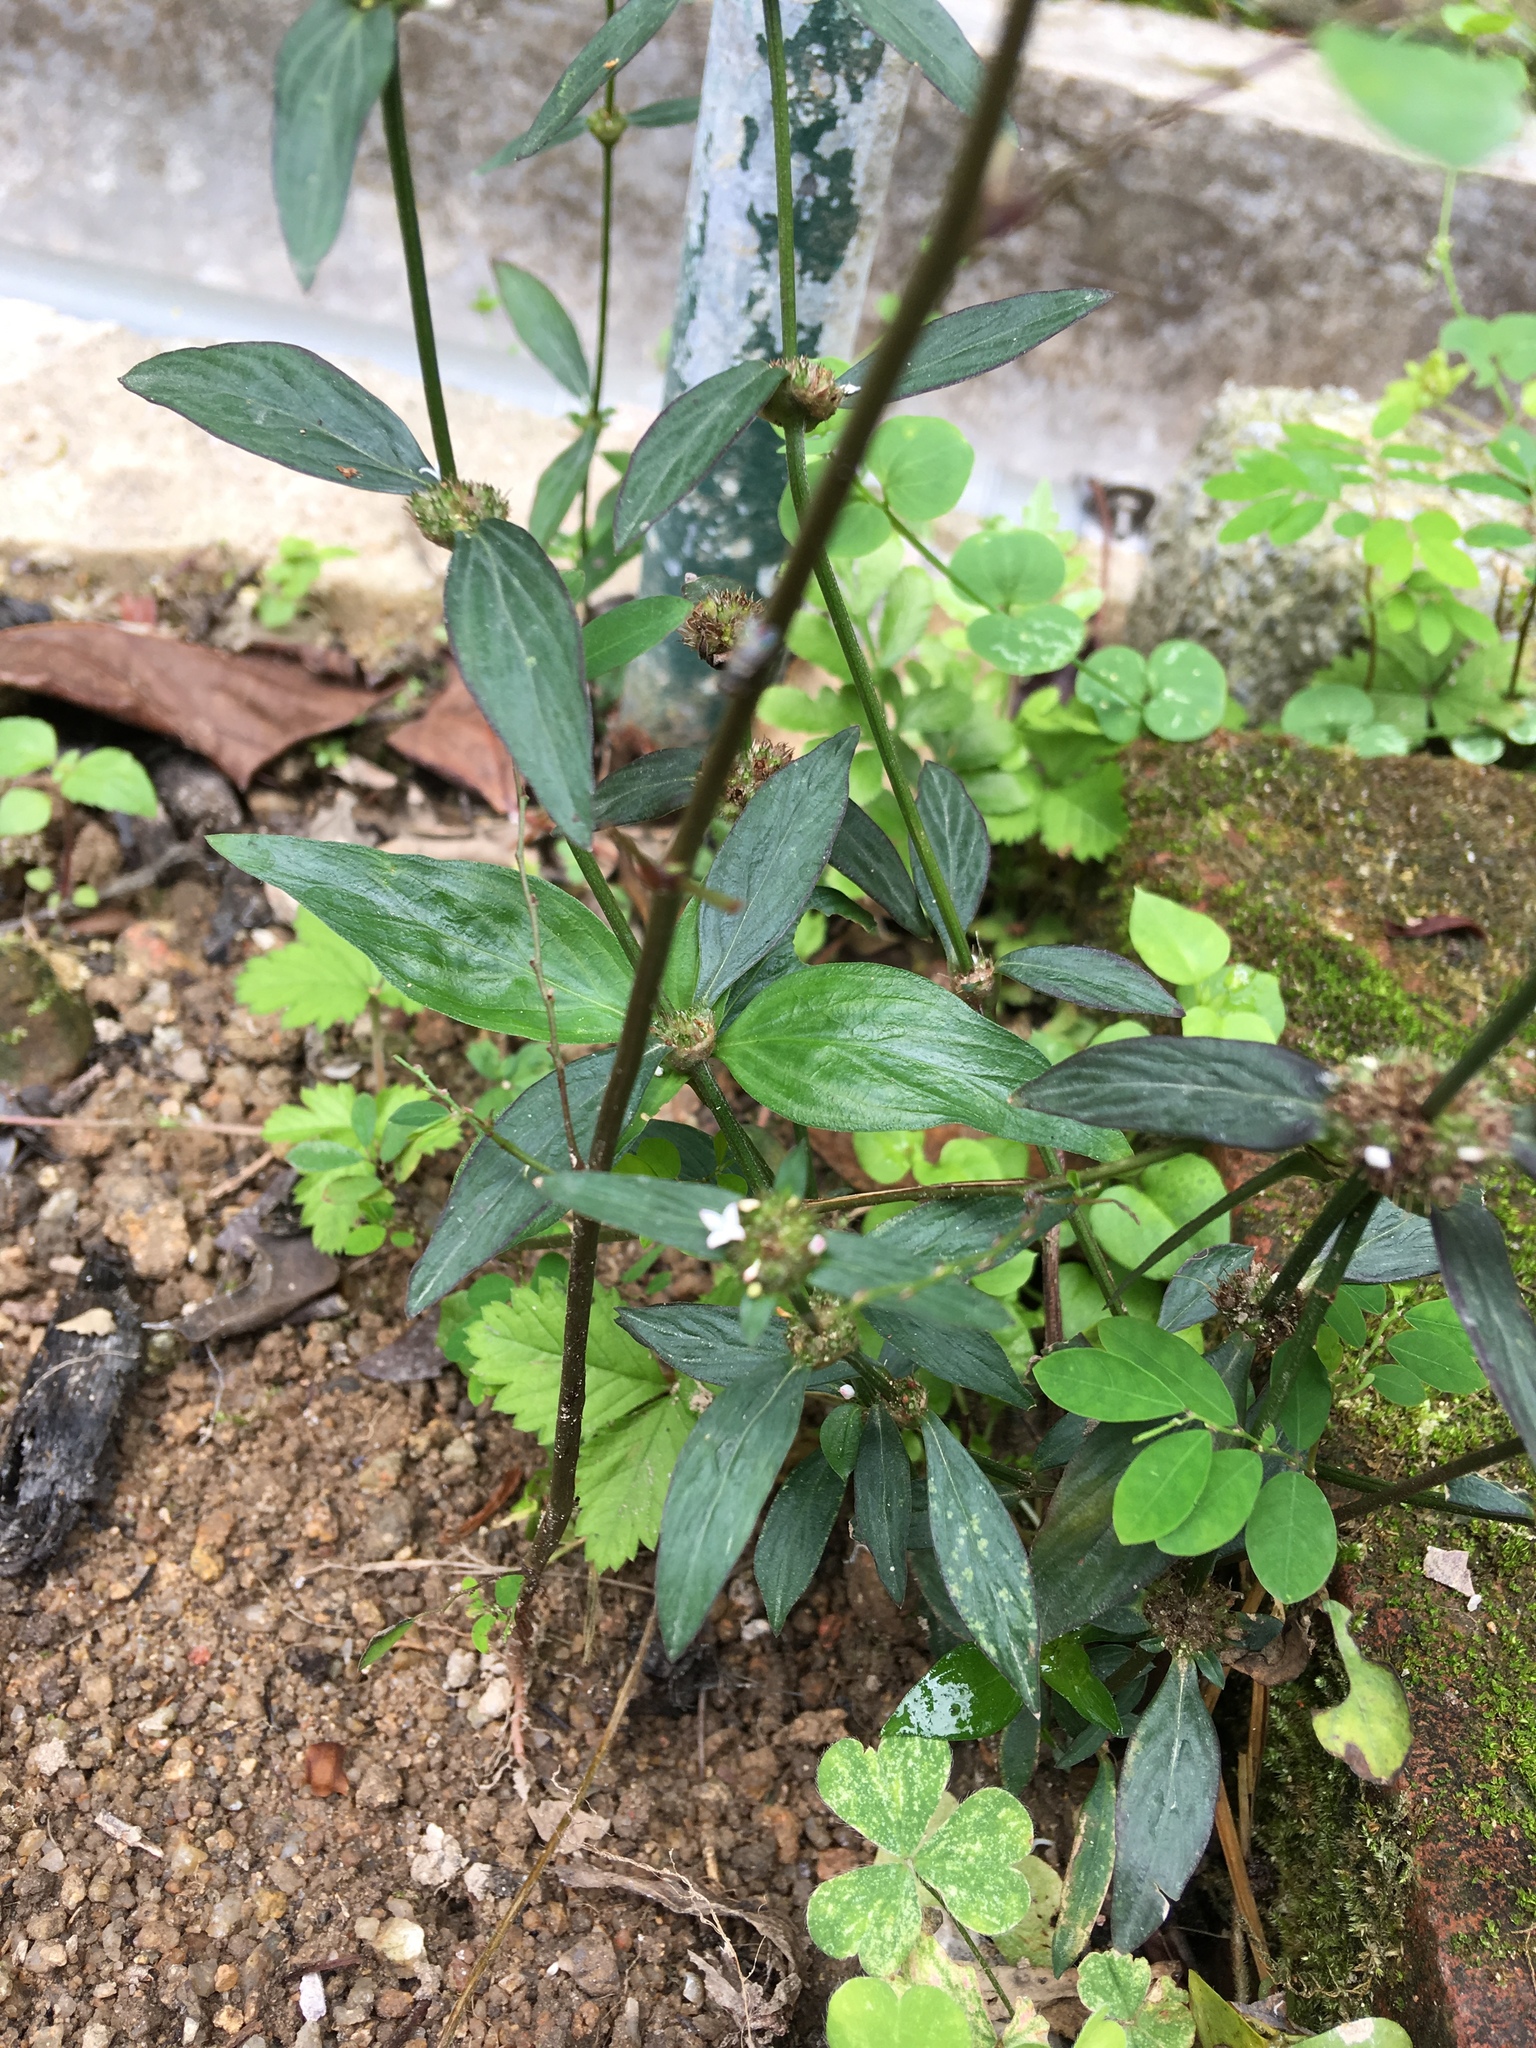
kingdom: Plantae
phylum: Tracheophyta
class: Magnoliopsida
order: Gentianales
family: Rubiaceae
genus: Spermacoce
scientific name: Spermacoce remota
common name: Woodland false buttonweed
